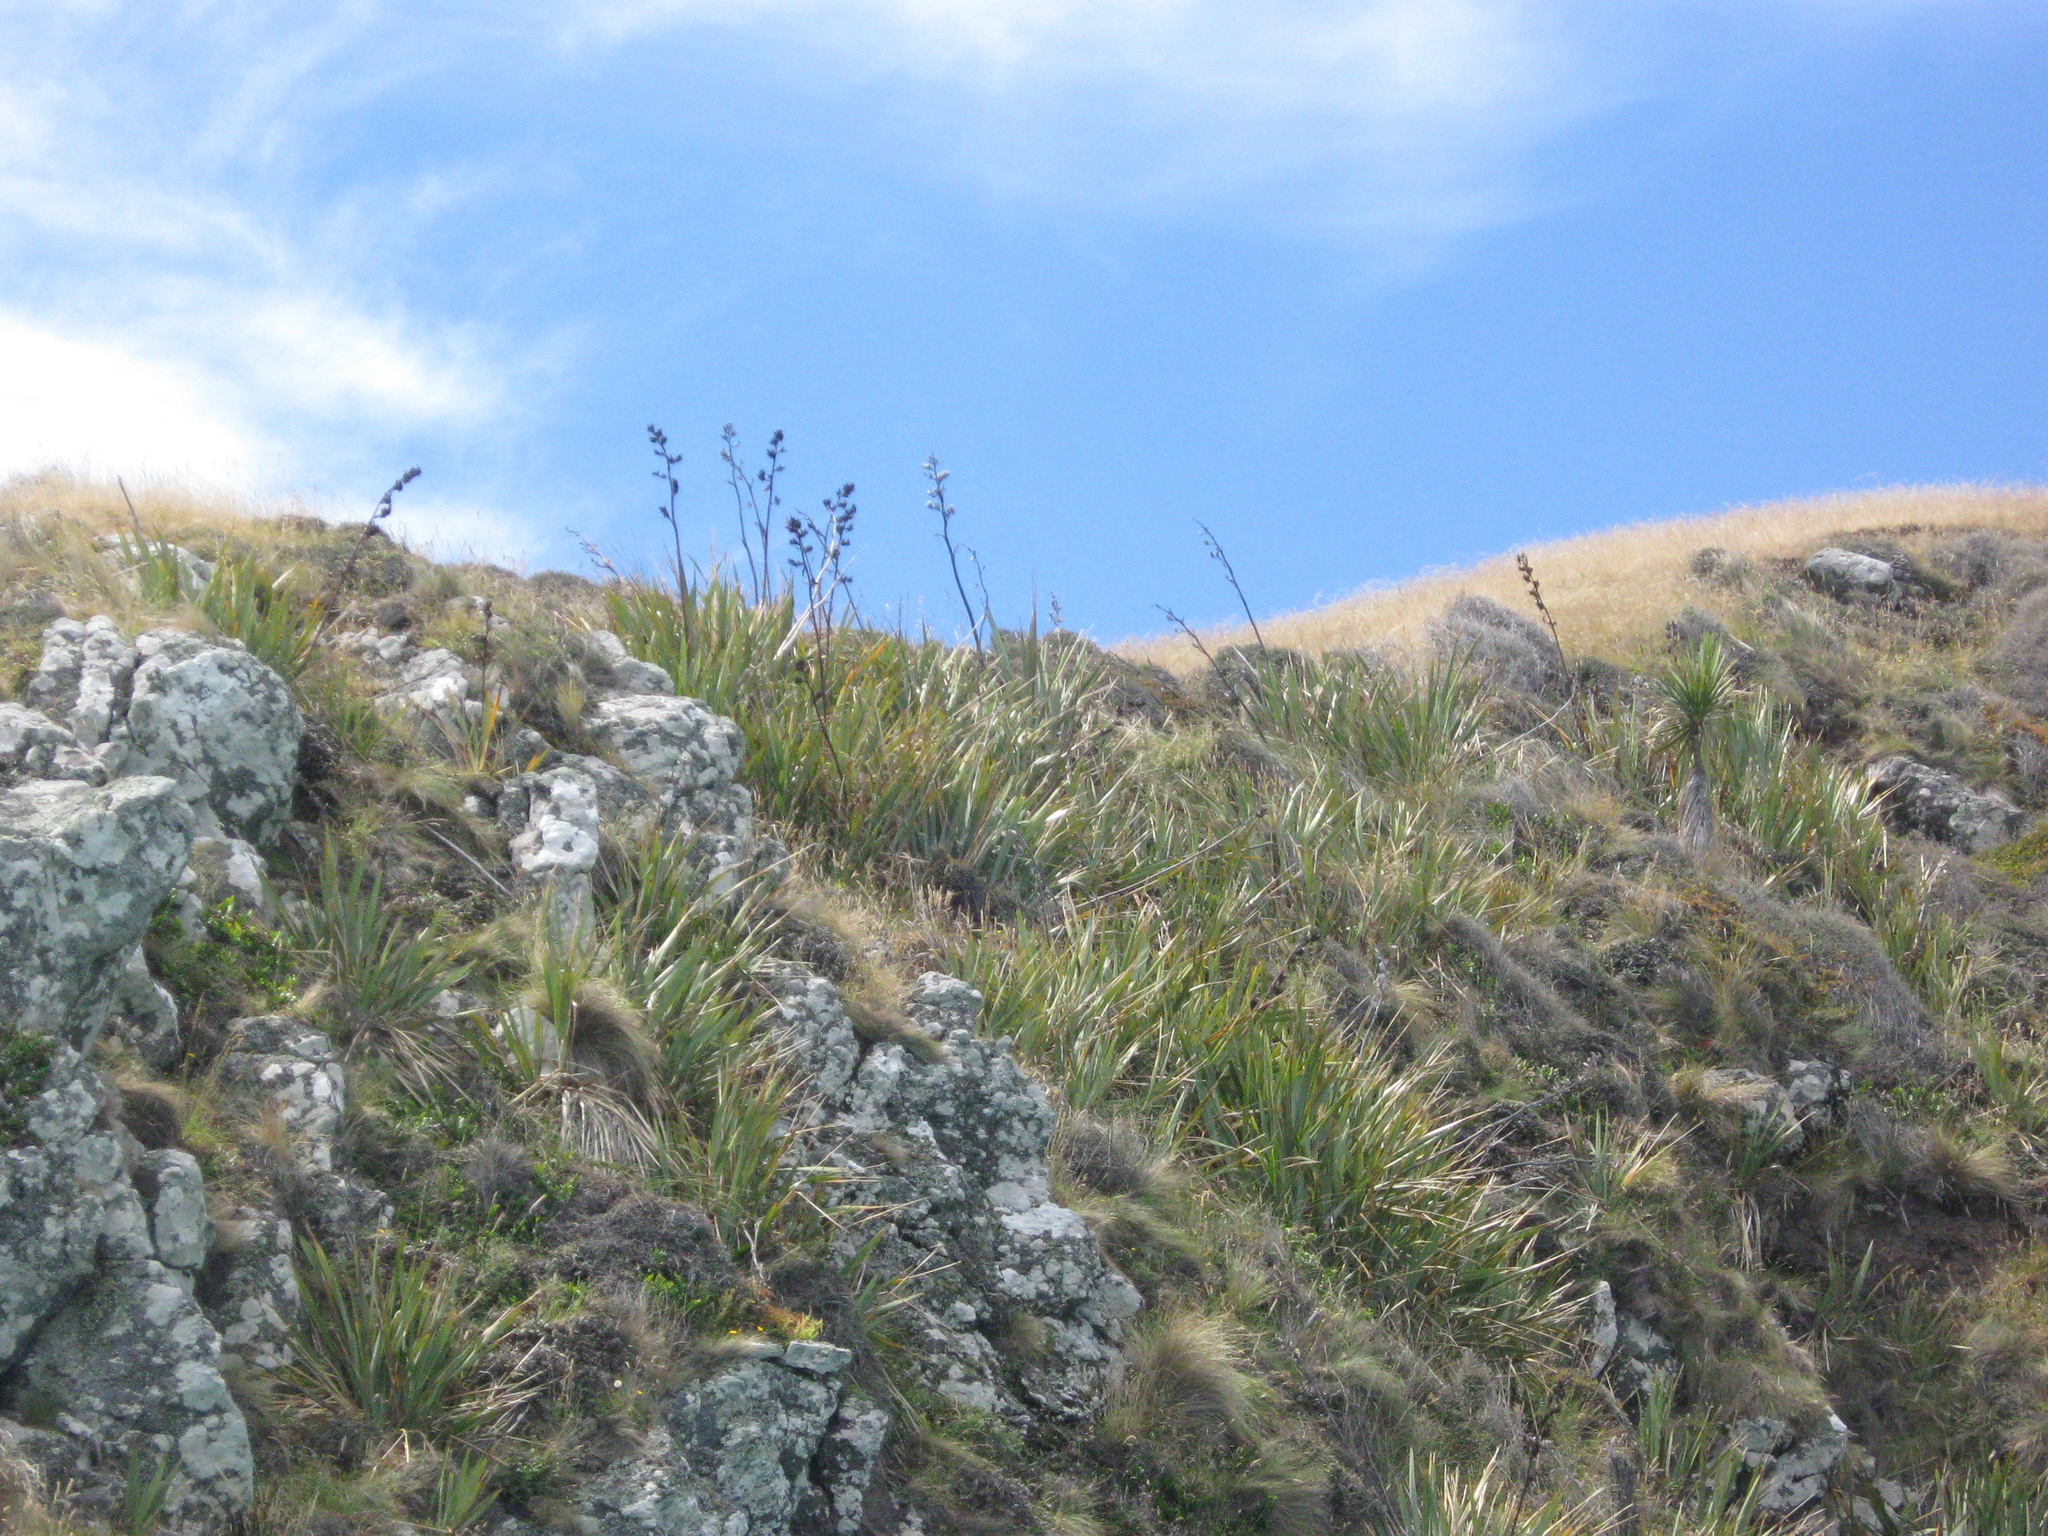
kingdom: Plantae
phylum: Tracheophyta
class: Liliopsida
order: Asparagales
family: Asphodelaceae
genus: Phormium
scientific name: Phormium tenax
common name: New zealand flax
